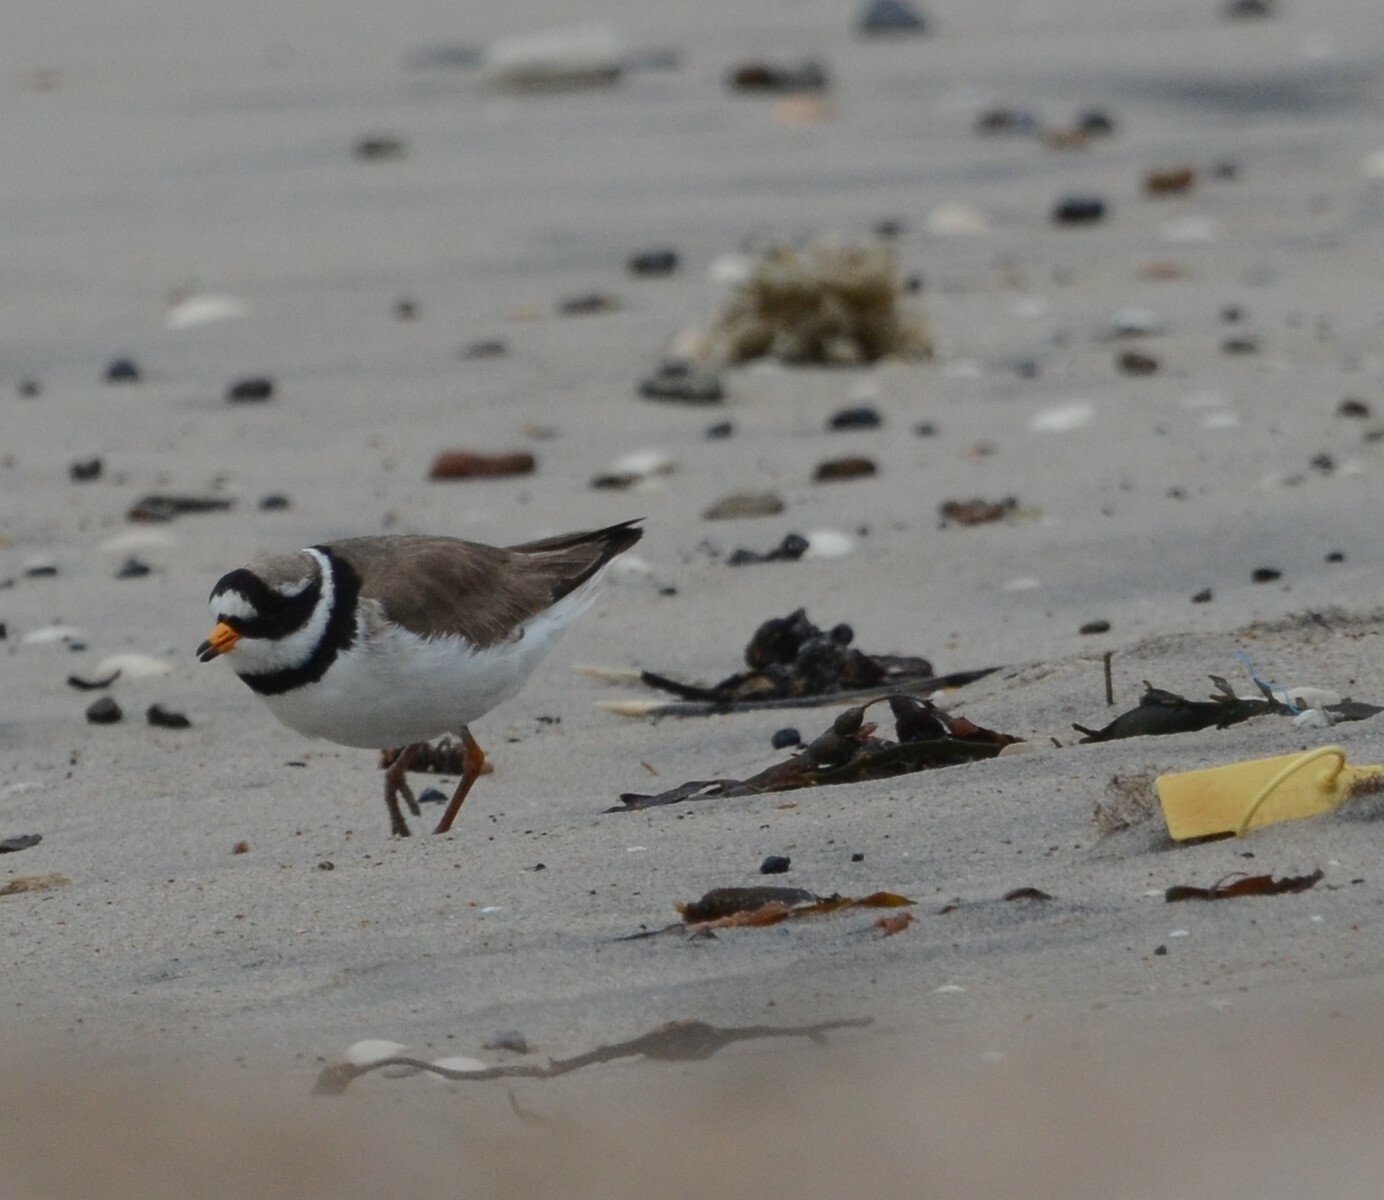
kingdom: Animalia
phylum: Chordata
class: Aves
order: Charadriiformes
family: Charadriidae
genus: Charadrius
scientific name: Charadrius hiaticula
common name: Common ringed plover
